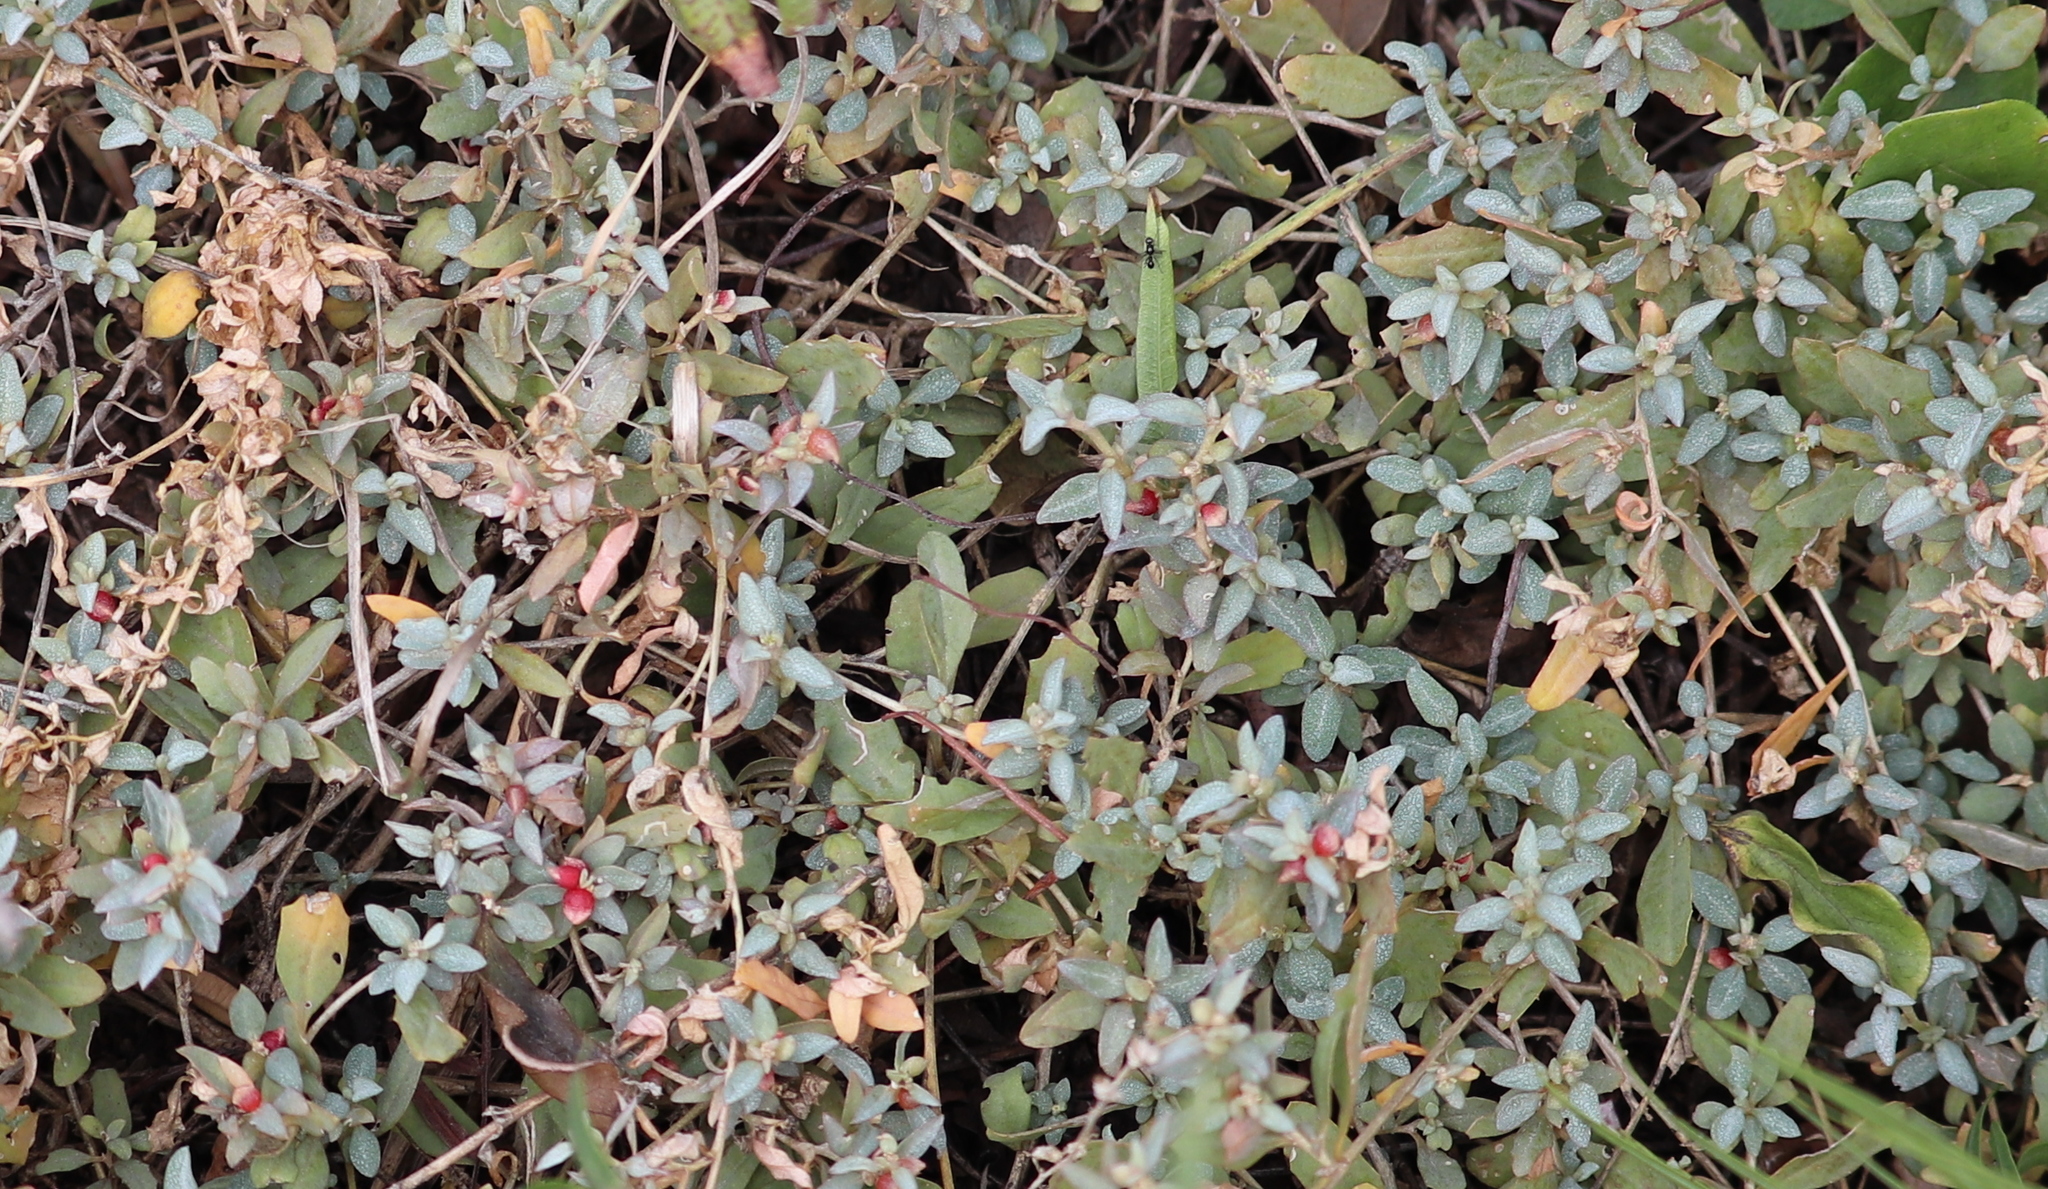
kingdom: Plantae
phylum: Tracheophyta
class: Magnoliopsida
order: Caryophyllales
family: Amaranthaceae
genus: Atriplex
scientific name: Atriplex semibaccata
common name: Australian saltbush
